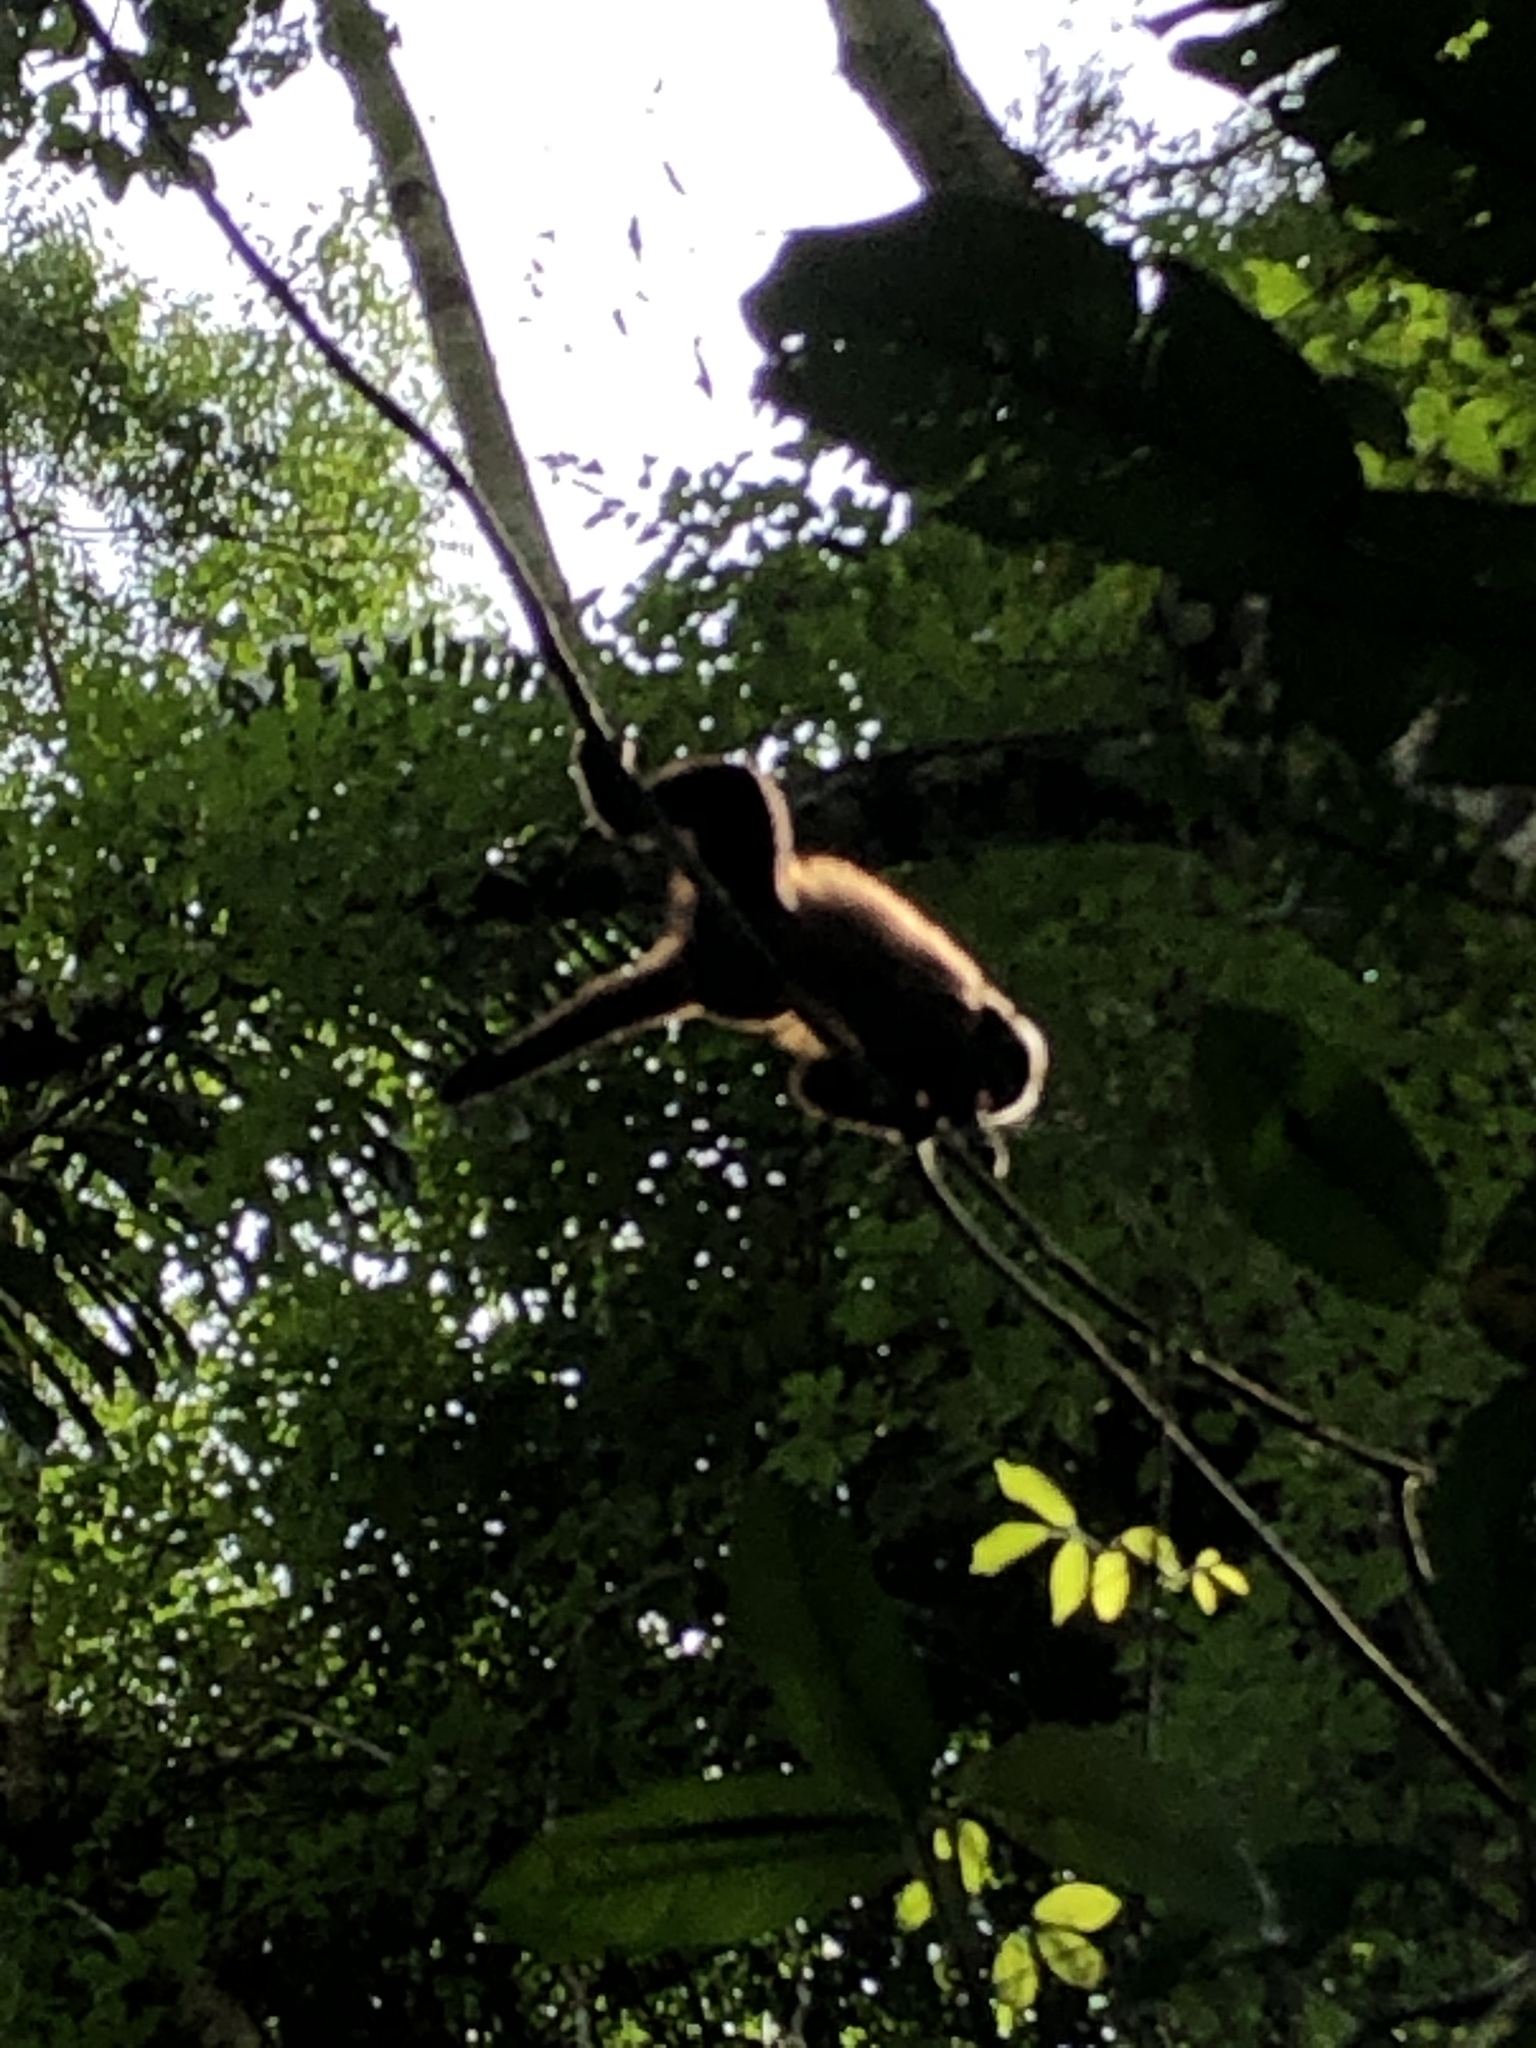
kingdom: Animalia
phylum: Chordata
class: Mammalia
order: Primates
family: Cebidae
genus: Sapajus
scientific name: Sapajus apella
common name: Tufted capuchin
